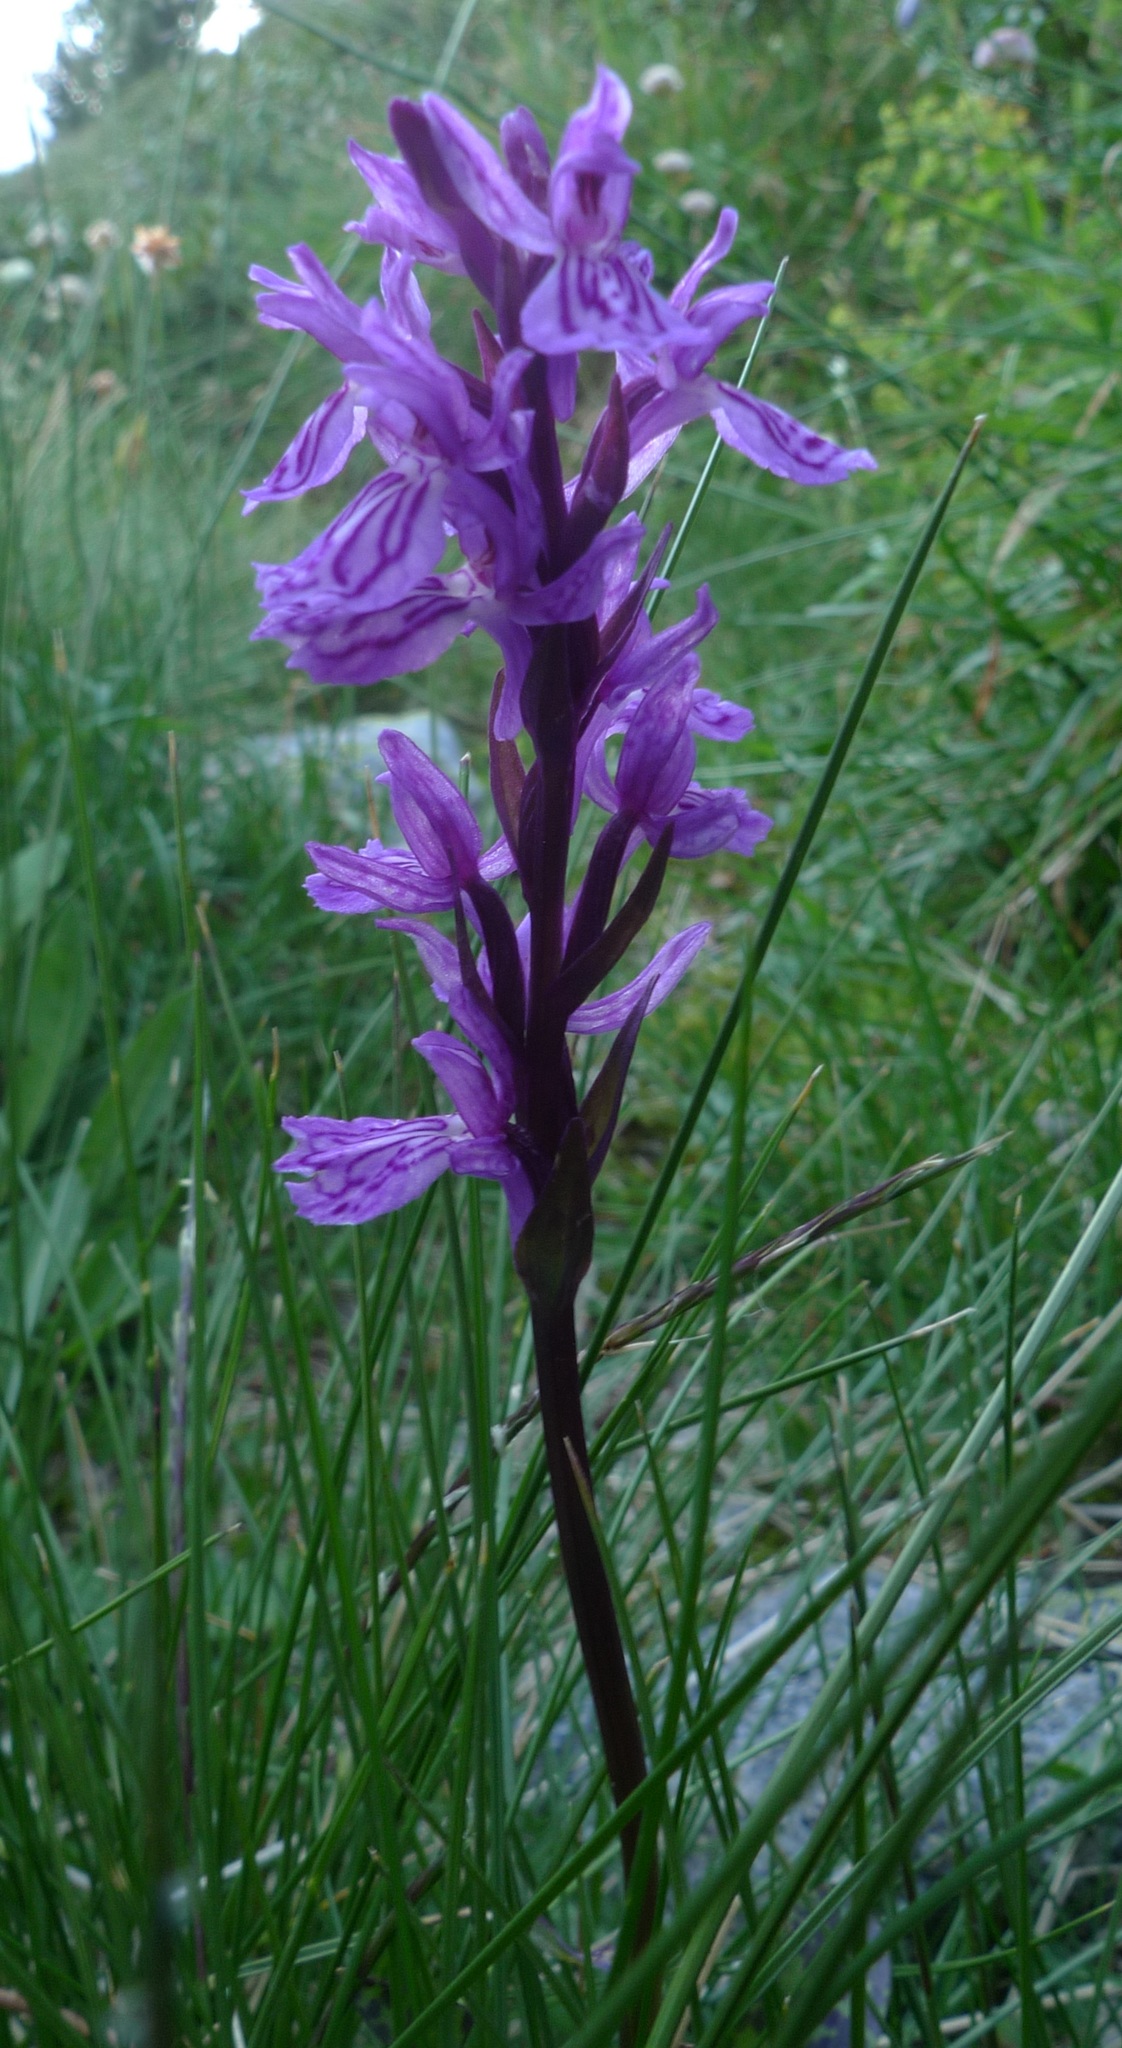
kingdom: Plantae
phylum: Tracheophyta
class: Liliopsida
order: Asparagales
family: Orchidaceae
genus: Dactylorhiza
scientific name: Dactylorhiza majalis
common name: Marsh orchid
